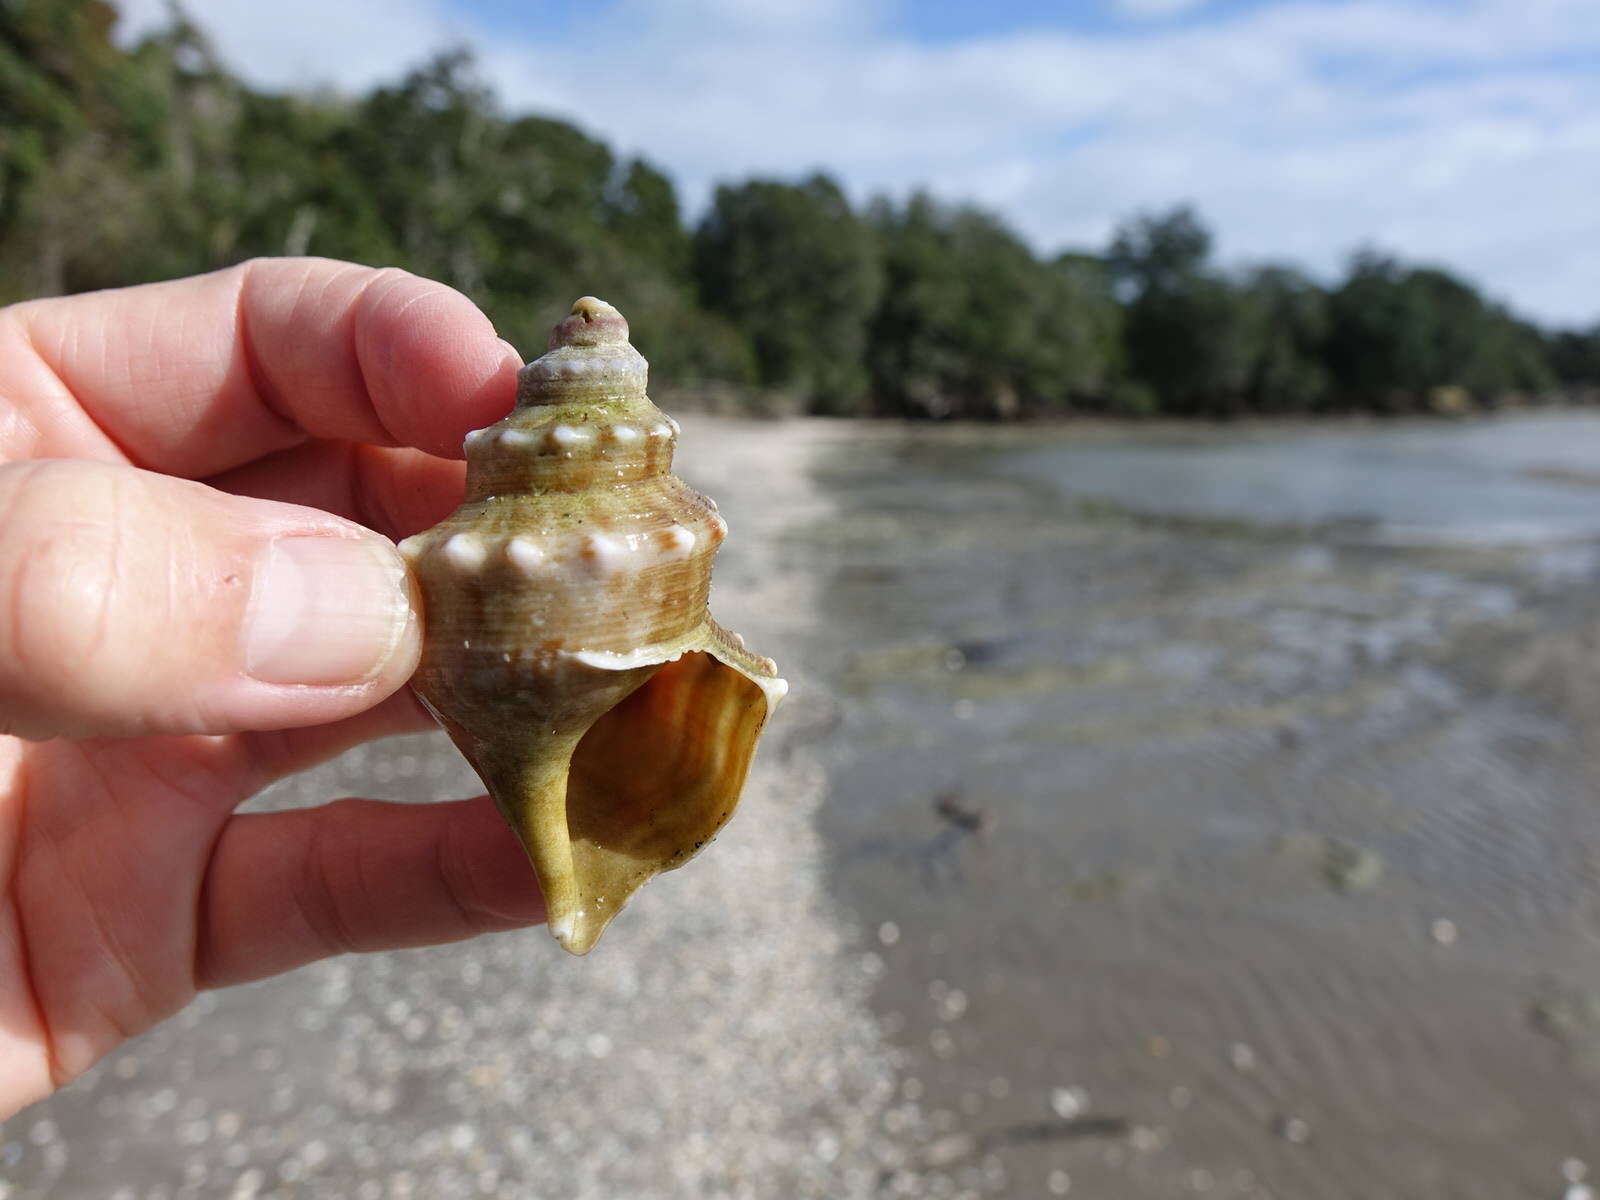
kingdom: Animalia
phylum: Mollusca
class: Gastropoda
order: Littorinimorpha
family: Struthiolariidae
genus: Struthiolaria
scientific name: Struthiolaria papulosa
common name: Large ostrich foot
